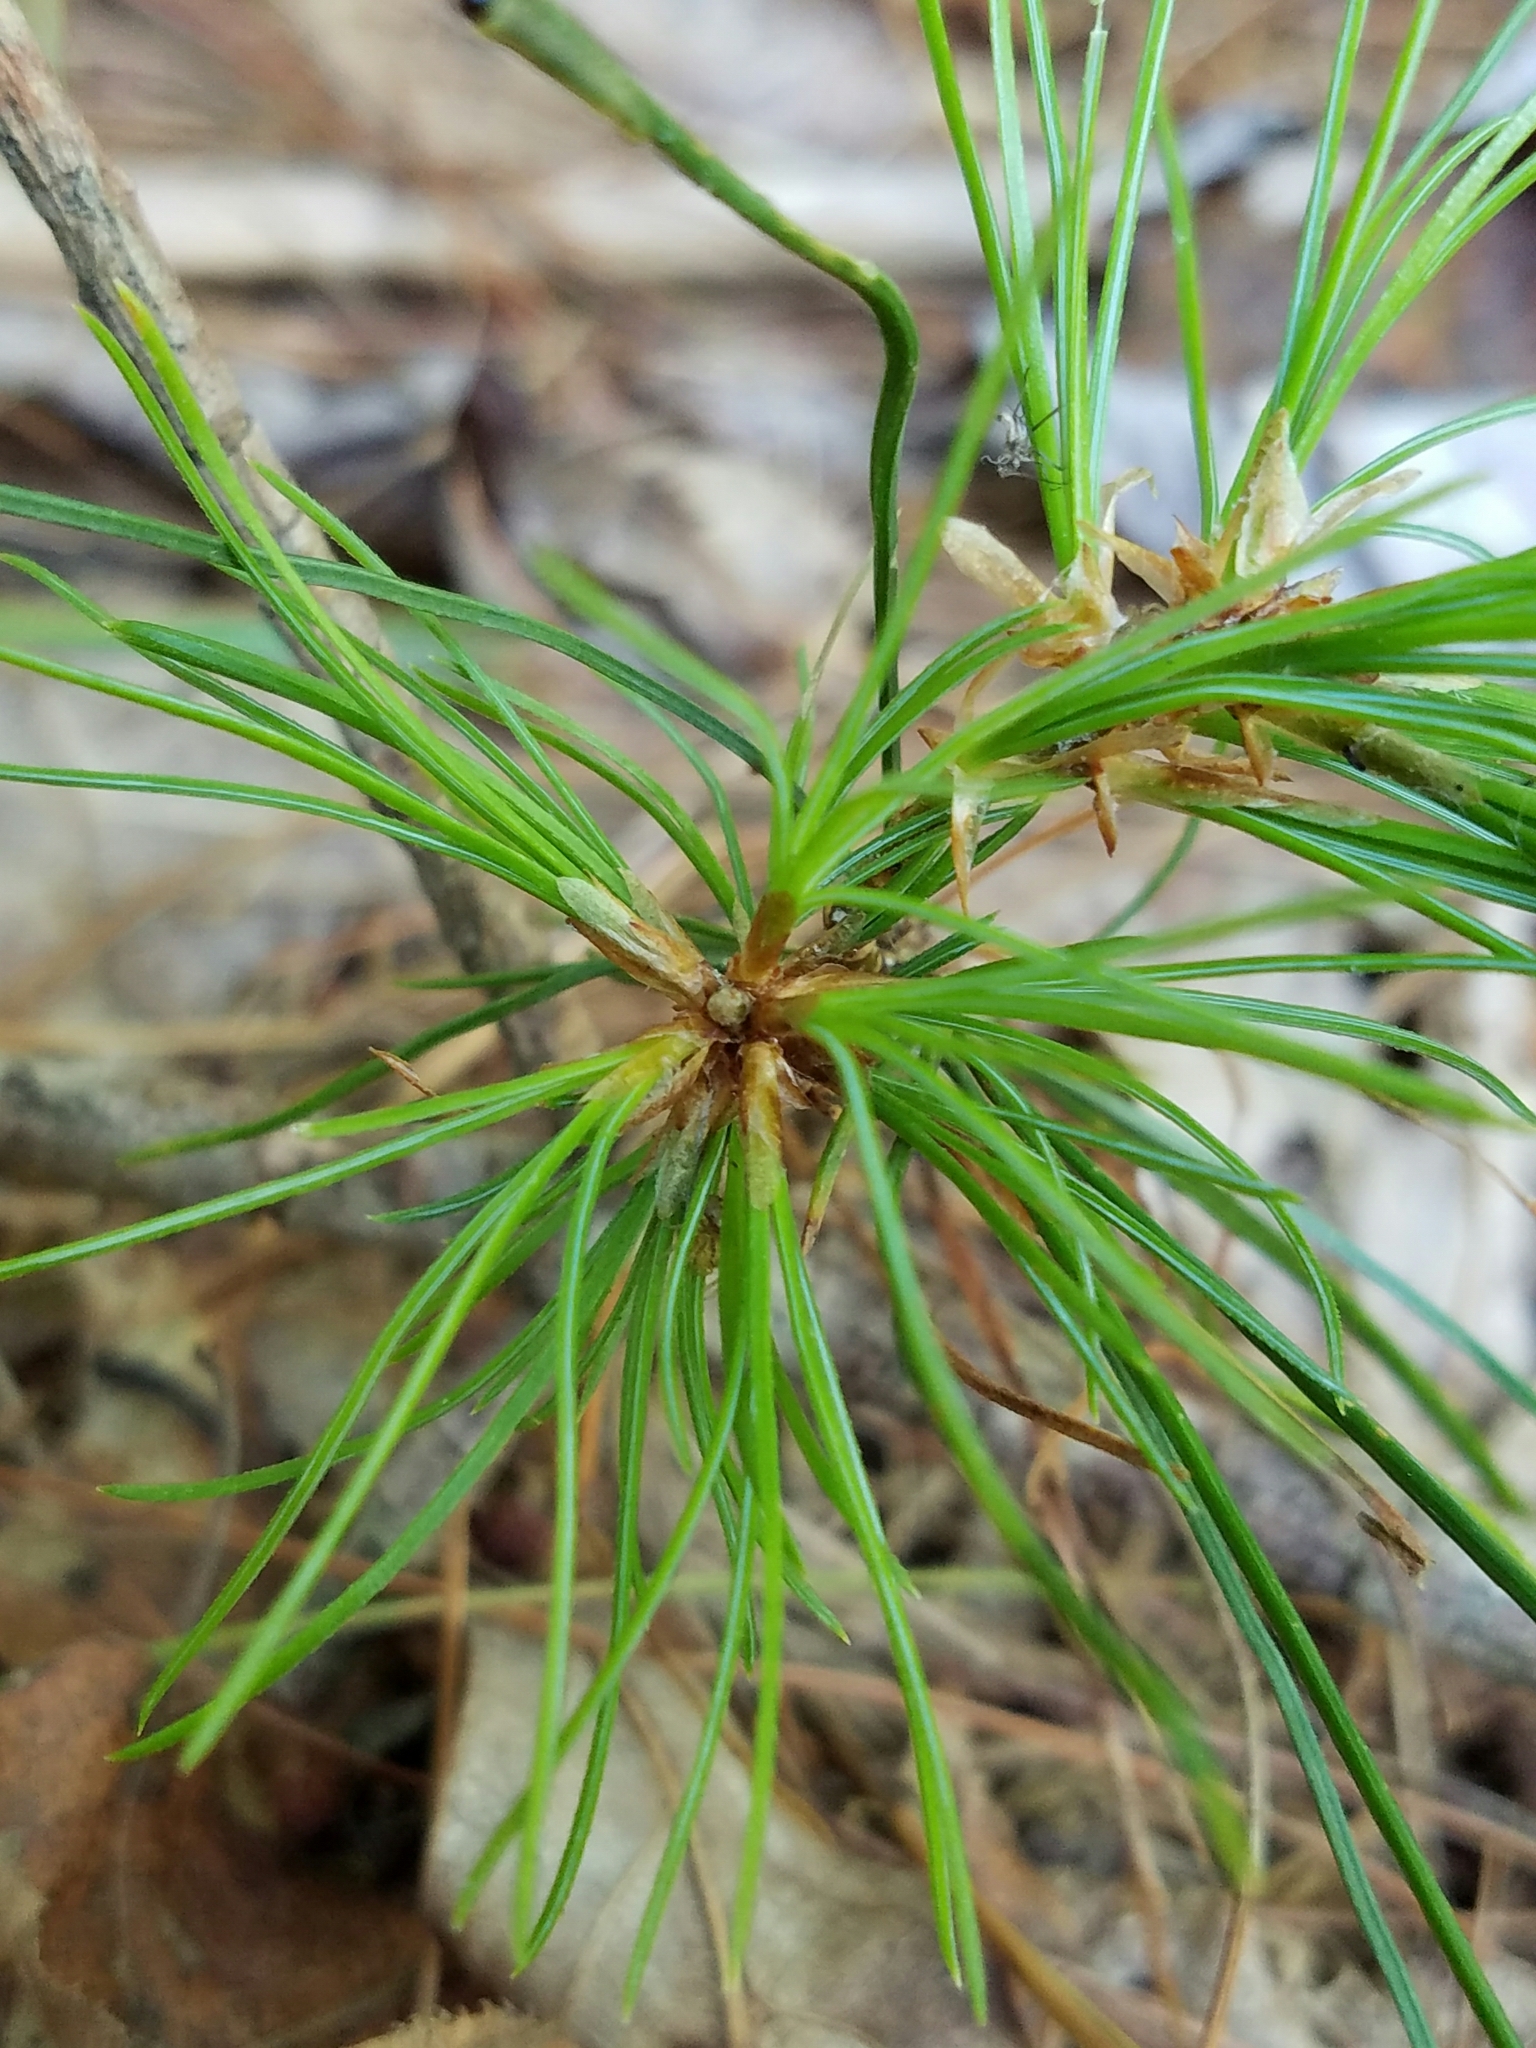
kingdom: Plantae
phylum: Tracheophyta
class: Pinopsida
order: Pinales
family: Pinaceae
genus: Pinus
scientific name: Pinus strobus
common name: Weymouth pine
